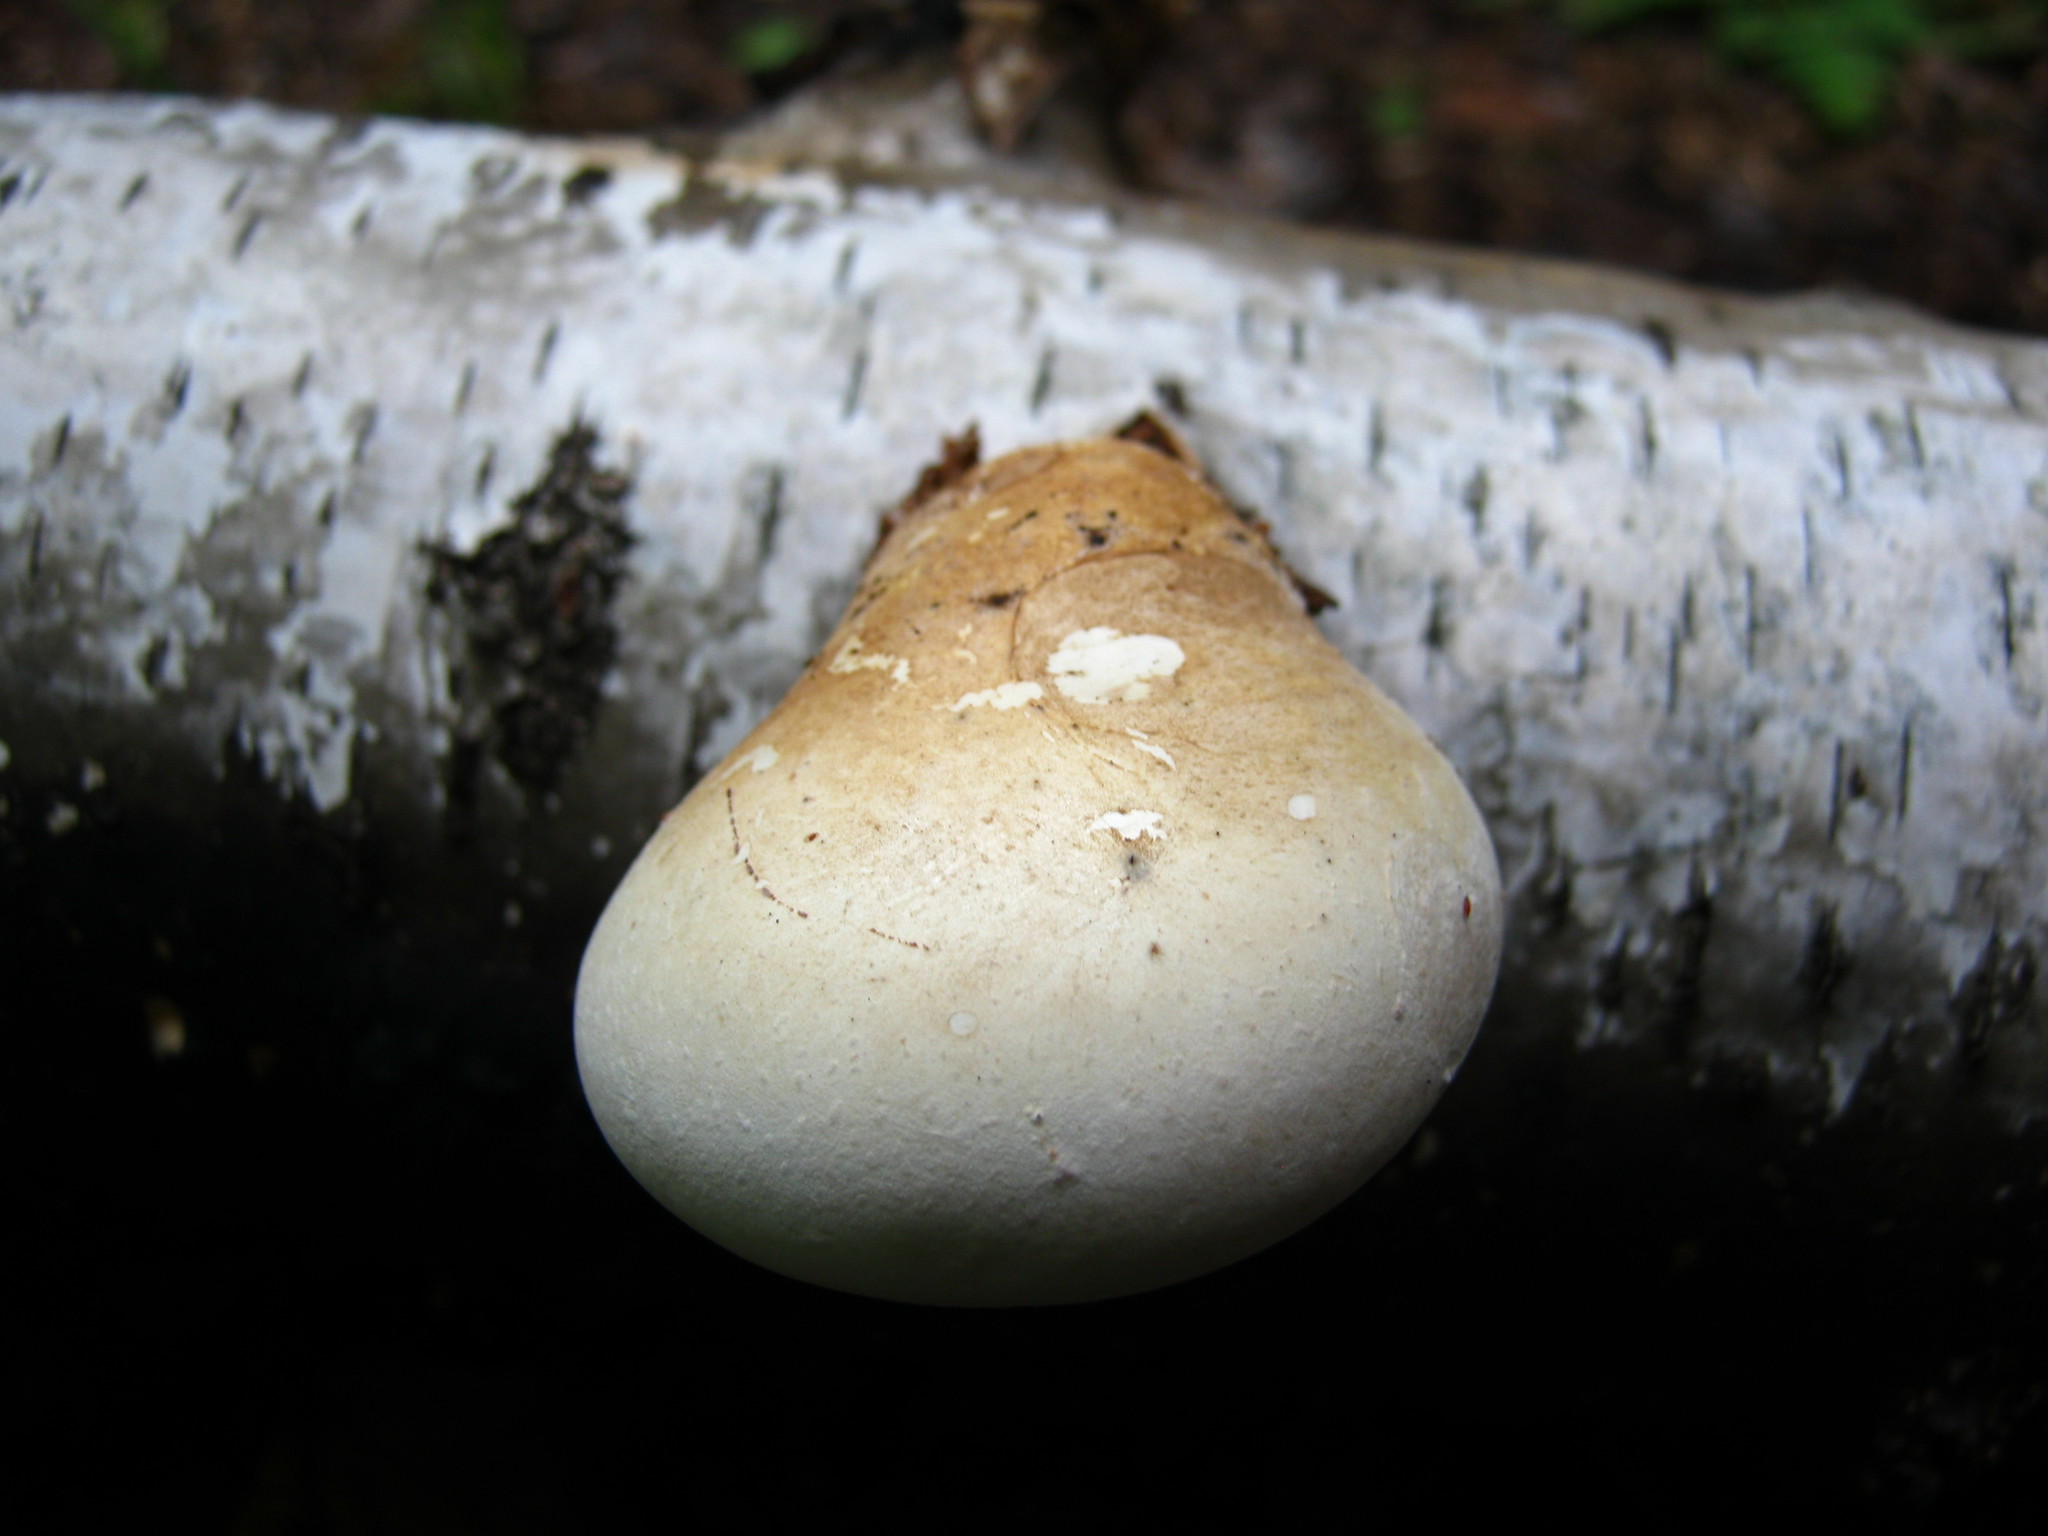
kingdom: Fungi
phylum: Basidiomycota
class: Agaricomycetes
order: Polyporales
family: Fomitopsidaceae
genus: Fomitopsis
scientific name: Fomitopsis betulina
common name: Birch polypore
